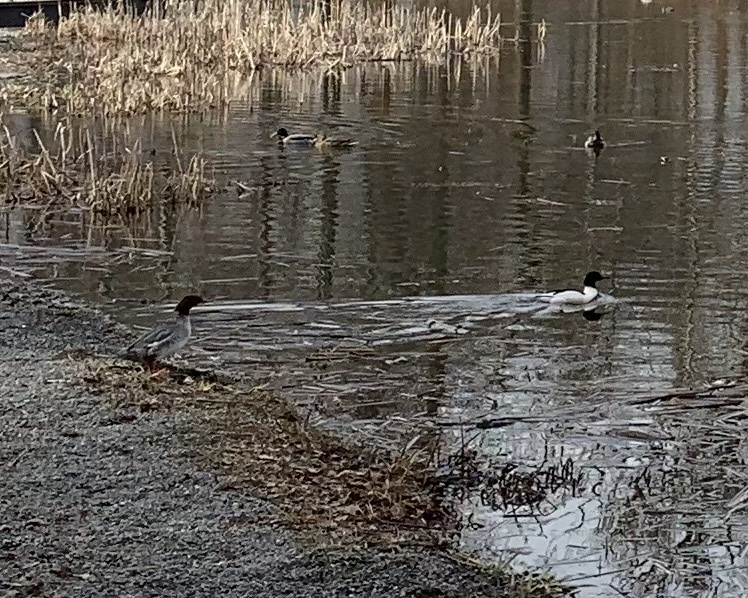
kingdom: Animalia
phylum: Chordata
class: Aves
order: Anseriformes
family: Anatidae
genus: Mergus
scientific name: Mergus merganser
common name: Common merganser
